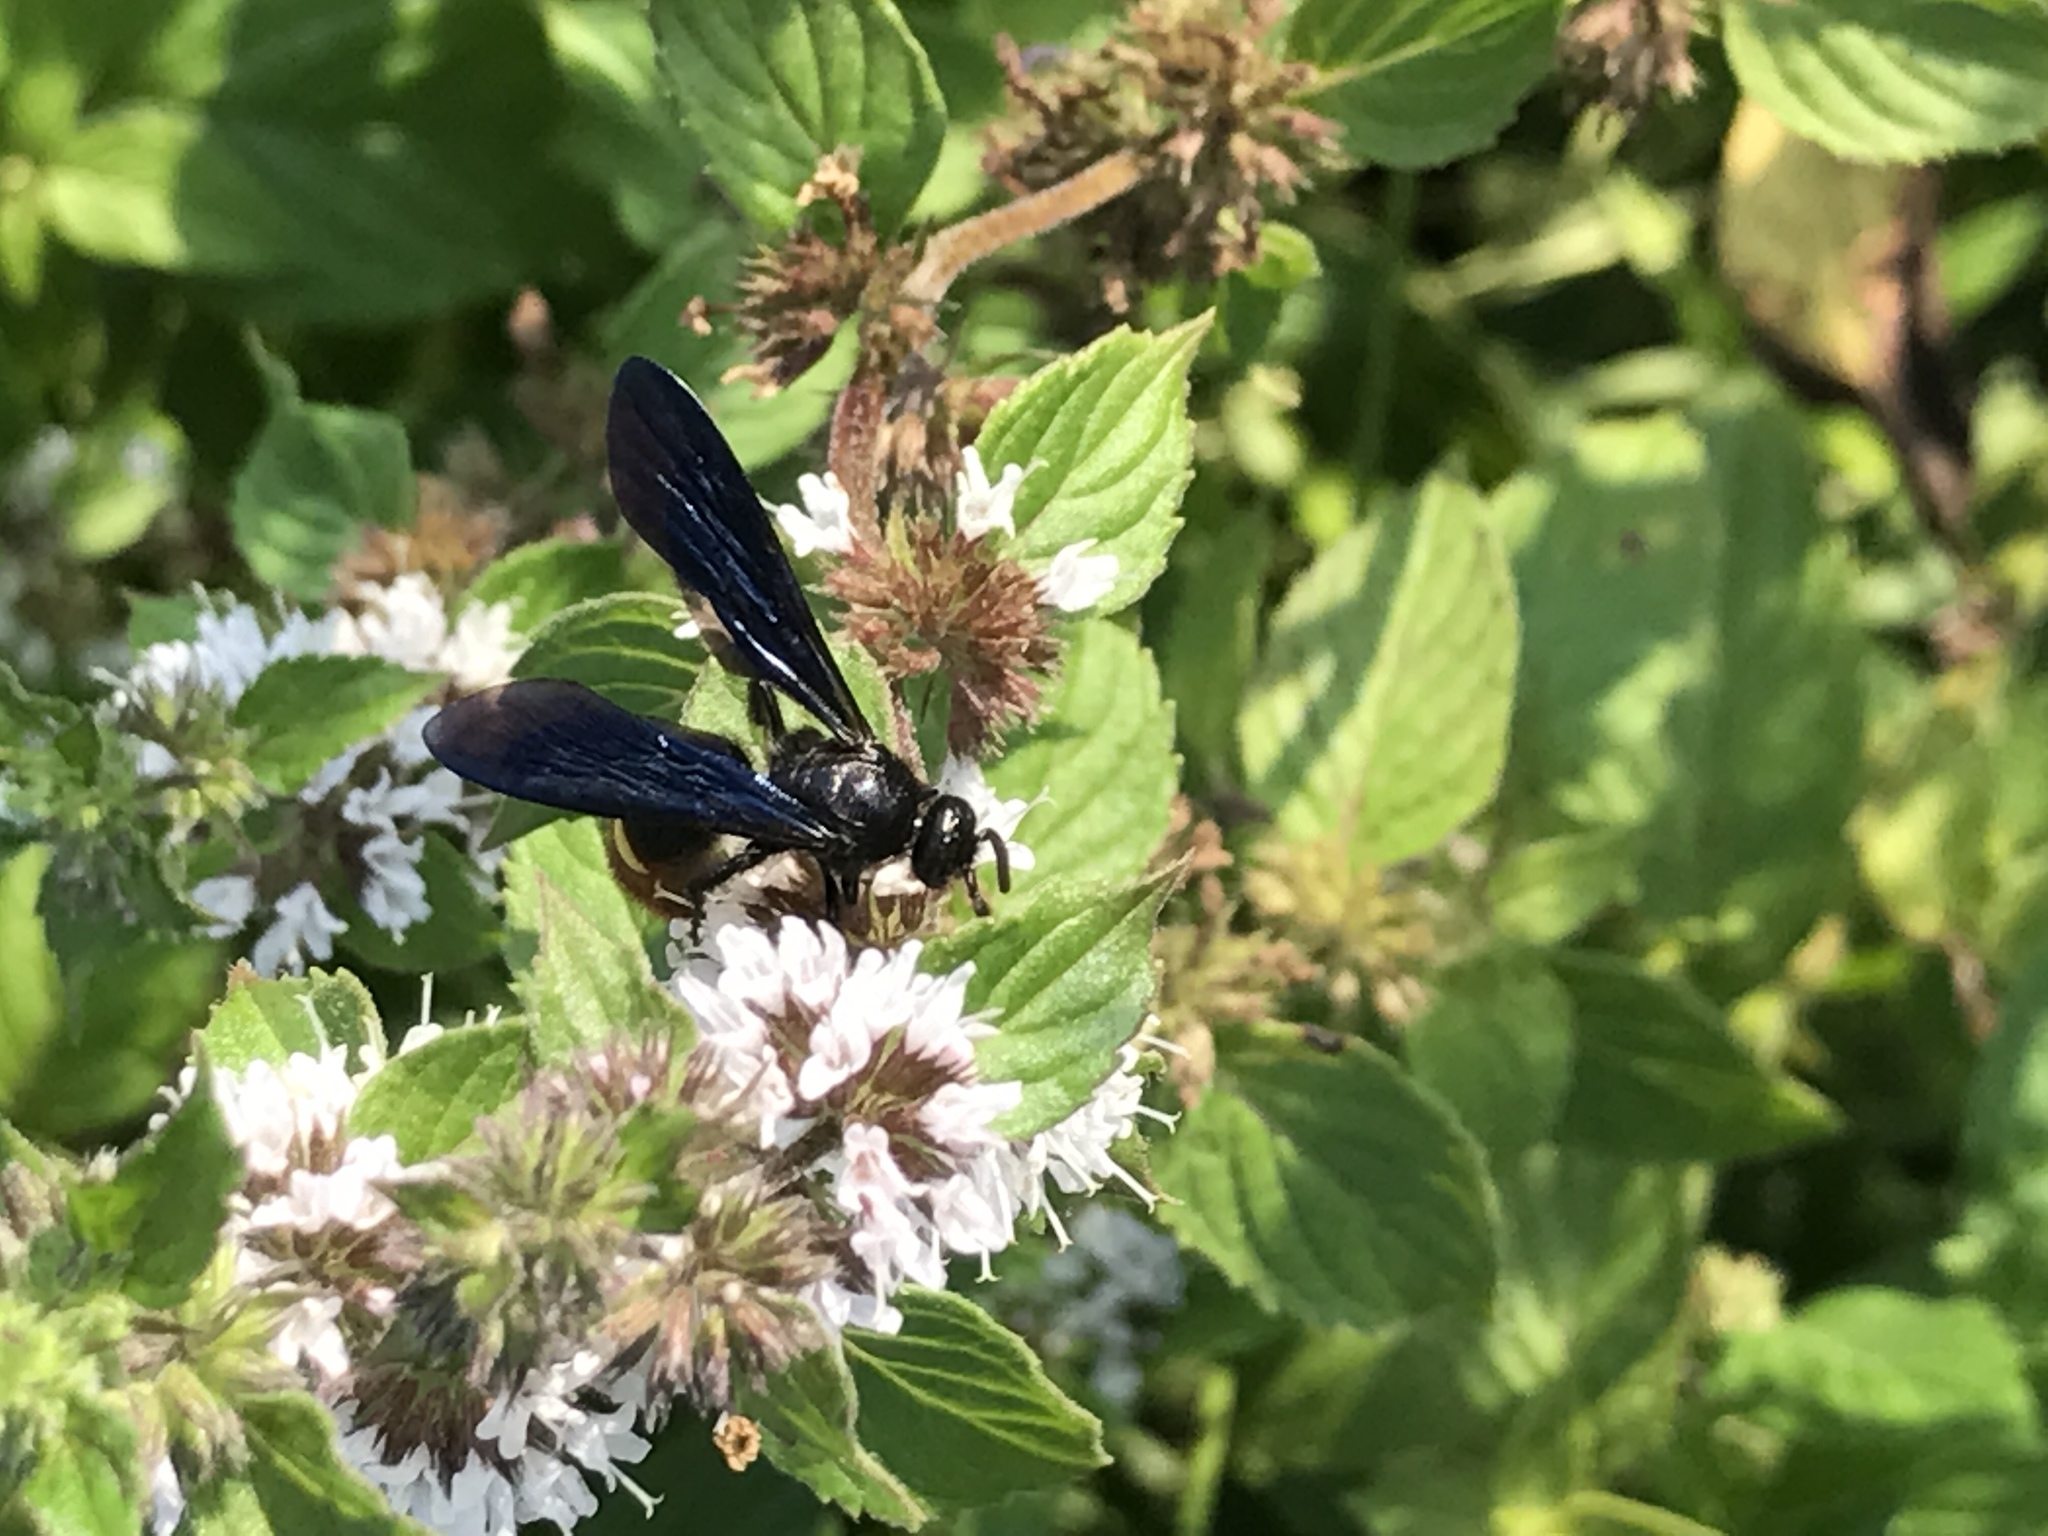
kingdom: Animalia
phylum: Arthropoda
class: Insecta
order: Hymenoptera
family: Scoliidae
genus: Scolia
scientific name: Scolia dubia
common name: Blue-winged scoliid wasp
